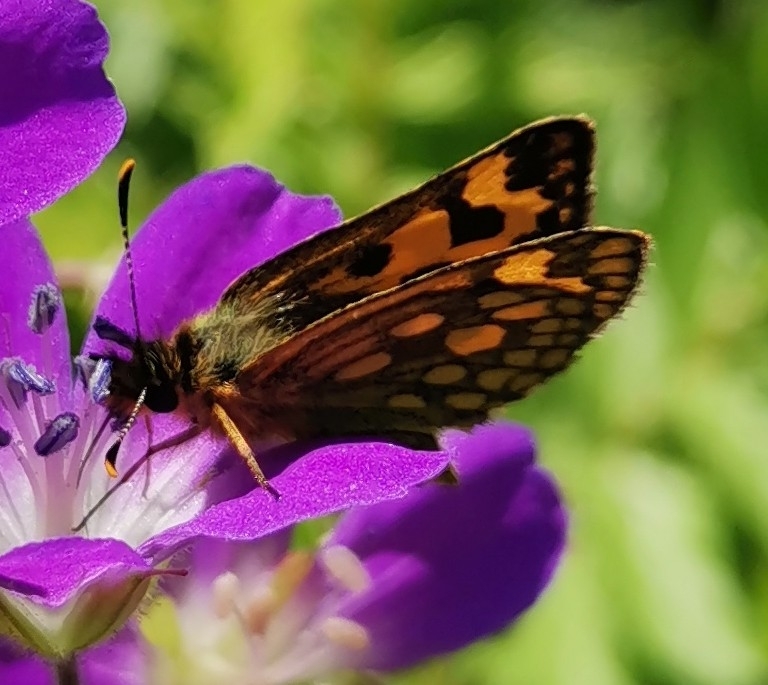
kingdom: Animalia
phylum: Arthropoda
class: Insecta
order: Lepidoptera
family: Hesperiidae
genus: Carterocephalus
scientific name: Carterocephalus silvicola
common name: Northern chequered skipper
